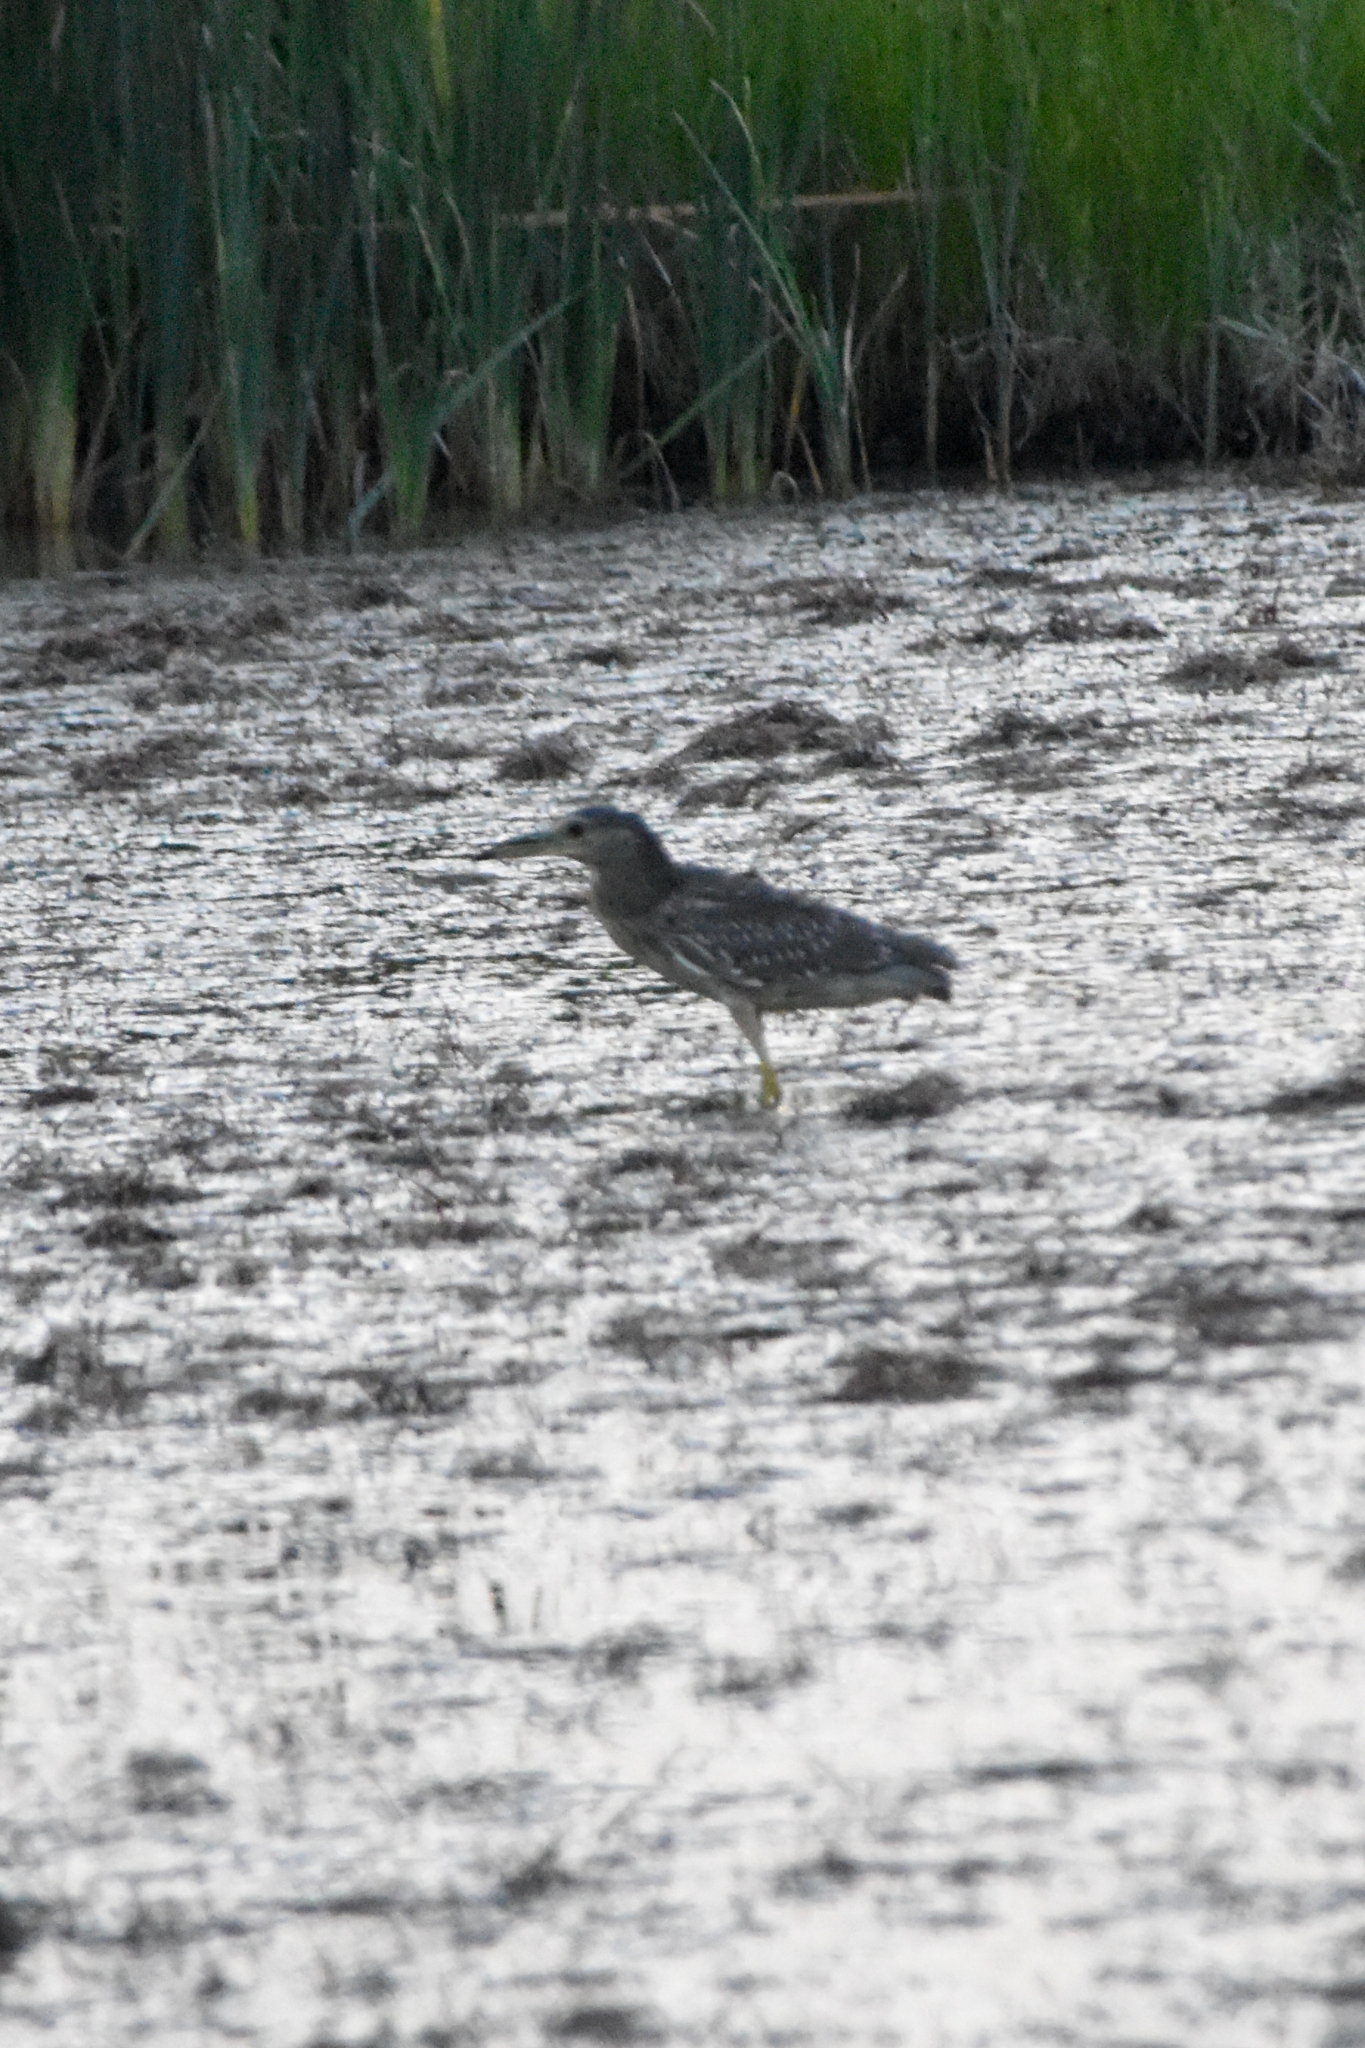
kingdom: Animalia
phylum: Chordata
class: Aves
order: Pelecaniformes
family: Ardeidae
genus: Nycticorax
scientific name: Nycticorax nycticorax
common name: Black-crowned night heron
